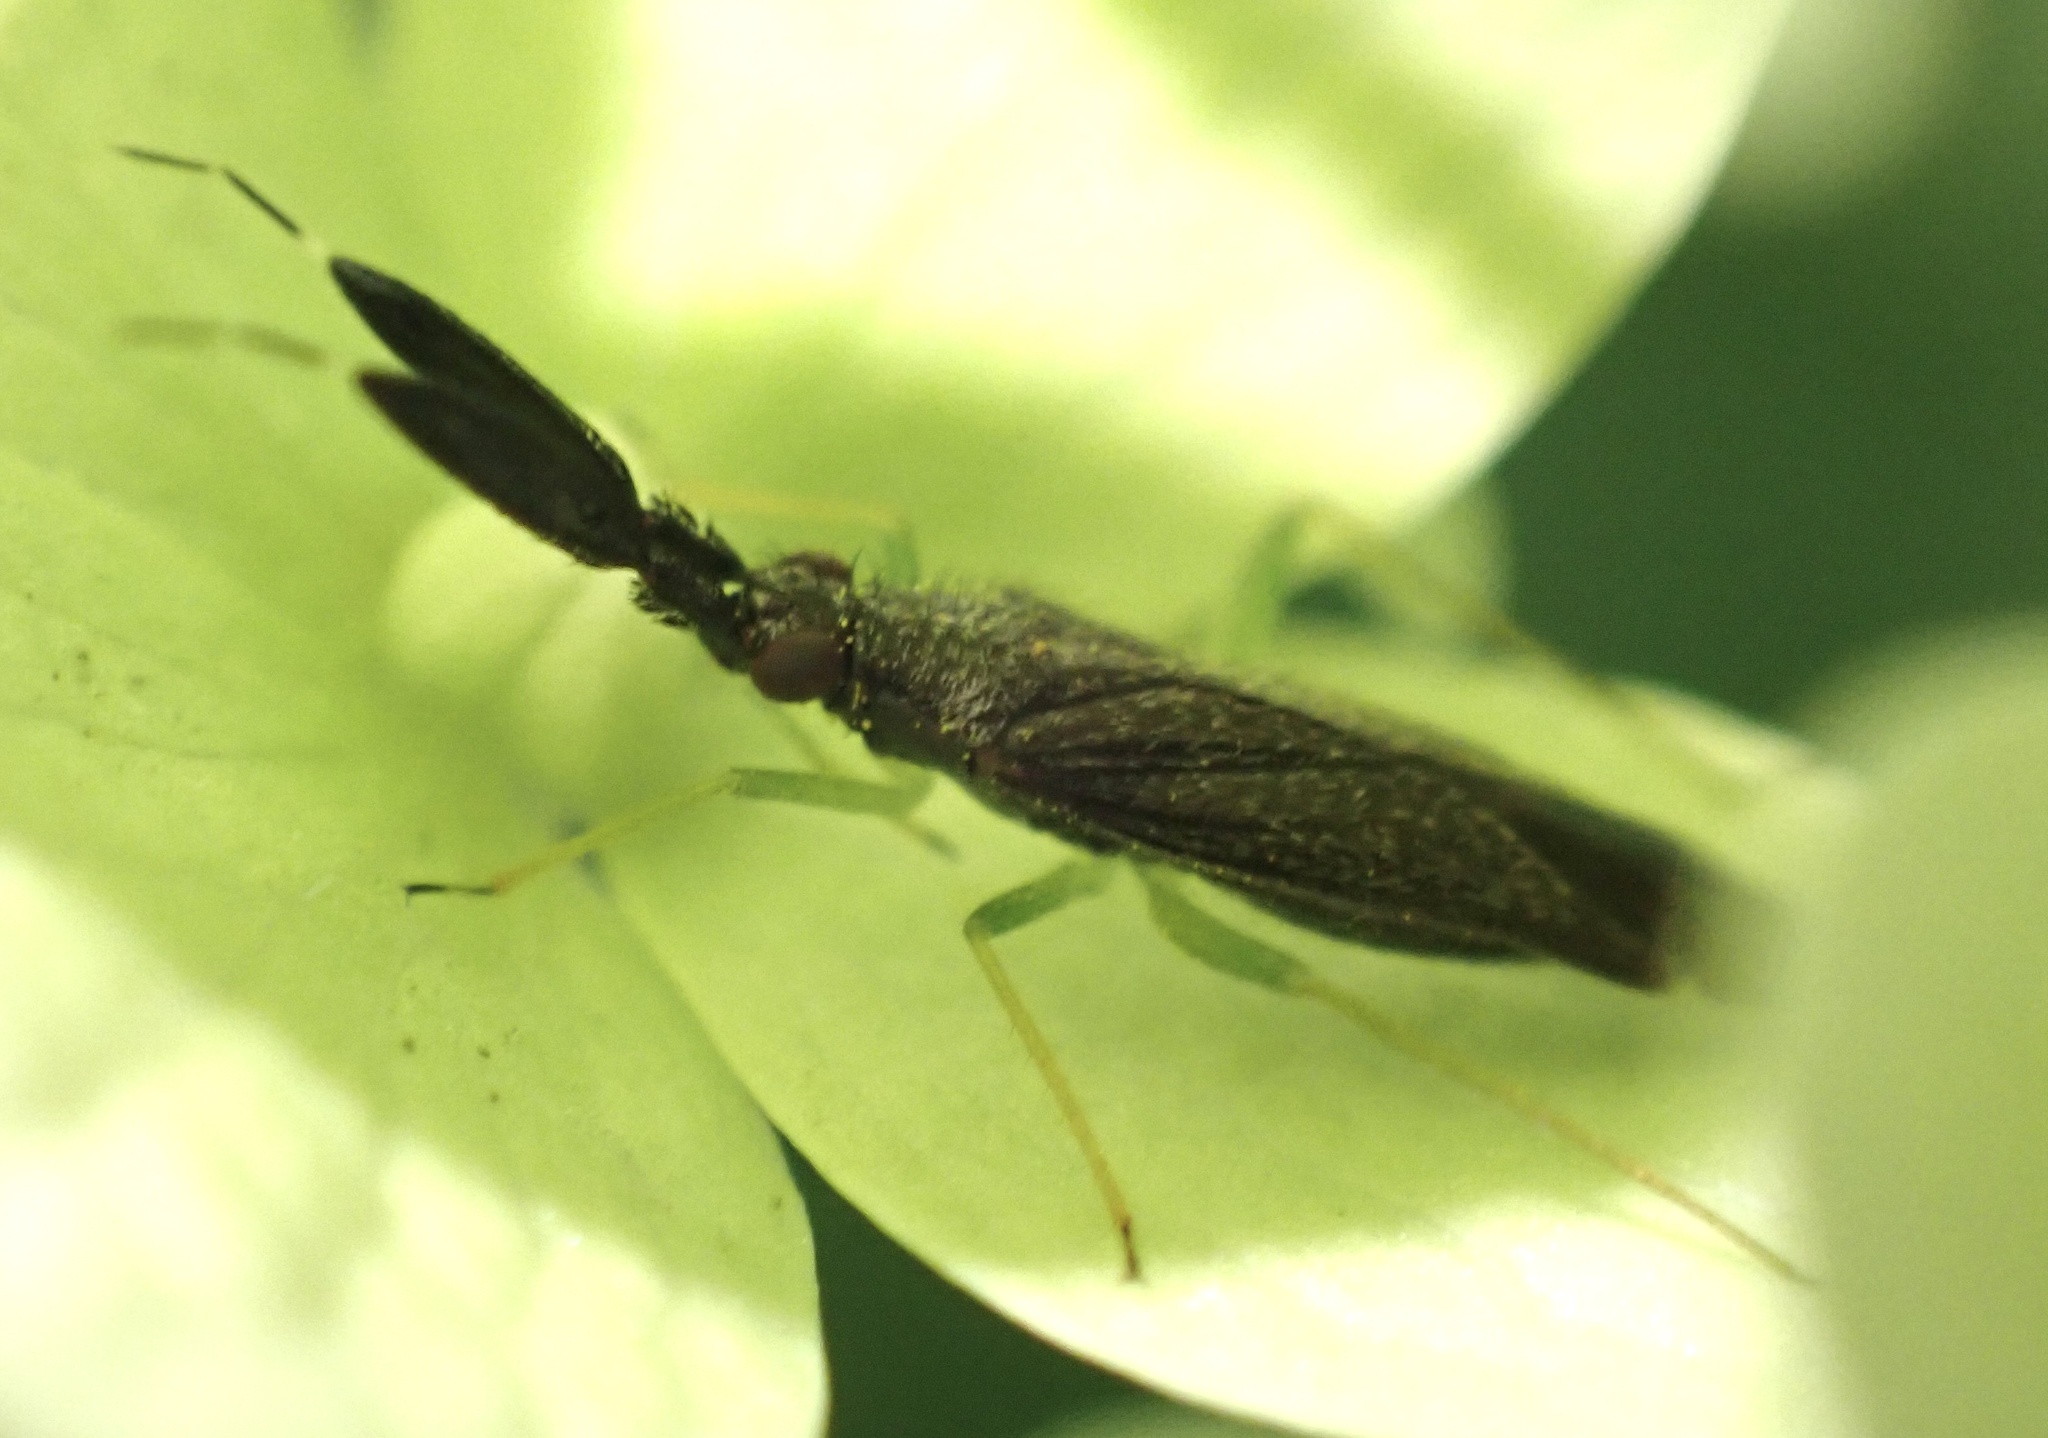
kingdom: Animalia
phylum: Arthropoda
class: Insecta
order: Hemiptera
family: Miridae
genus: Heterotoma
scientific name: Heterotoma planicornis
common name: Plant bug
